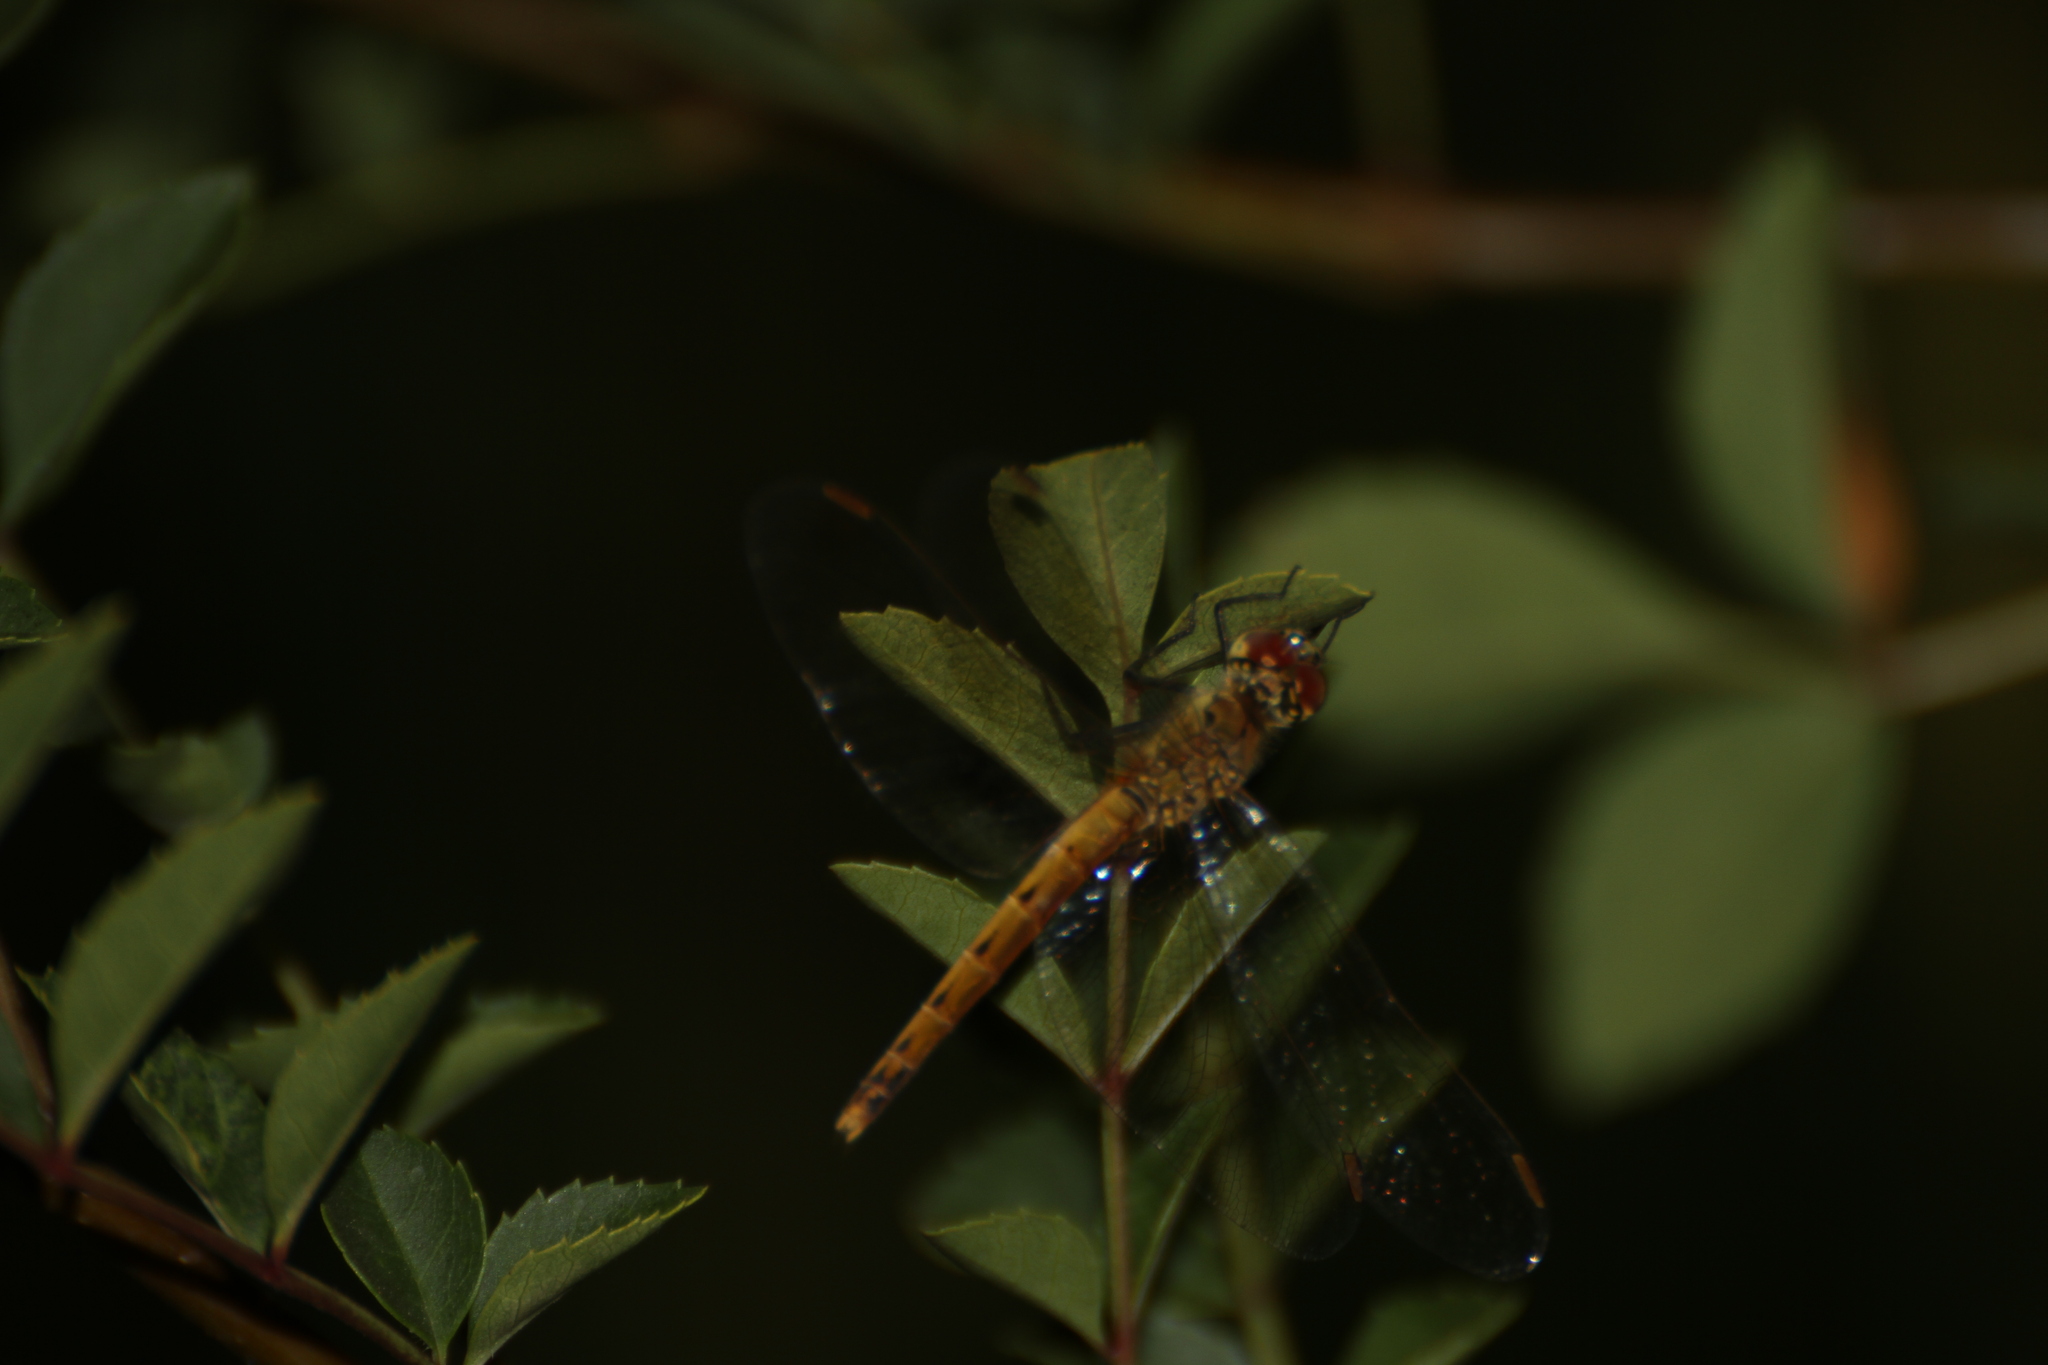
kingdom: Animalia
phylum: Arthropoda
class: Insecta
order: Odonata
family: Libellulidae
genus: Sympetrum
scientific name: Sympetrum depressiusculum
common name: Spotted darter
